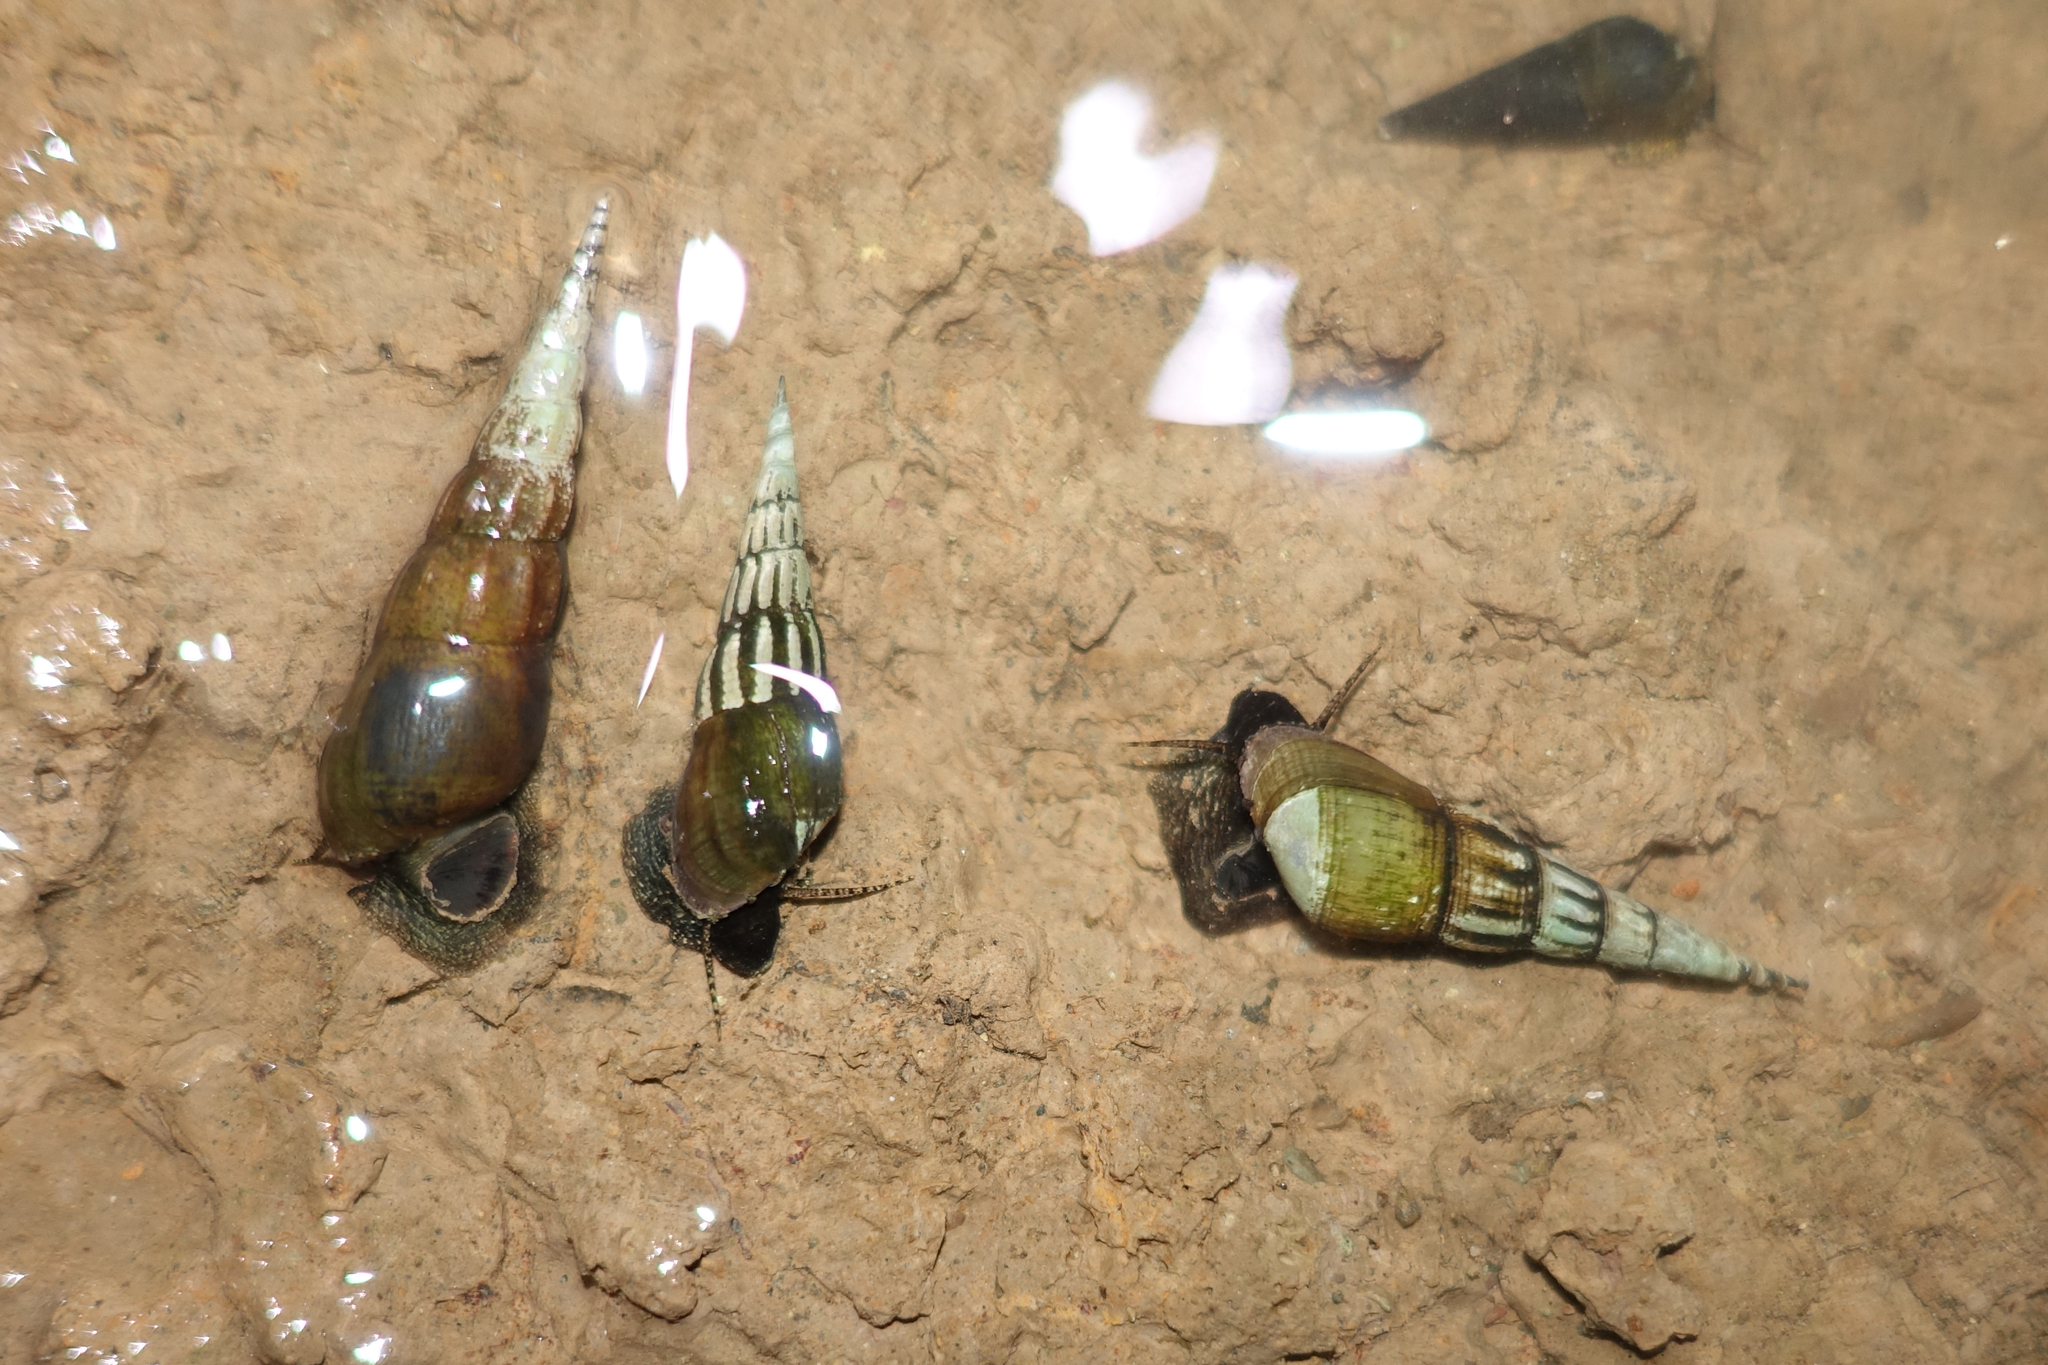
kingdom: Animalia
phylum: Mollusca
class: Gastropoda
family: Thiaridae
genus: Stenomelania
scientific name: Stenomelania plicaria
